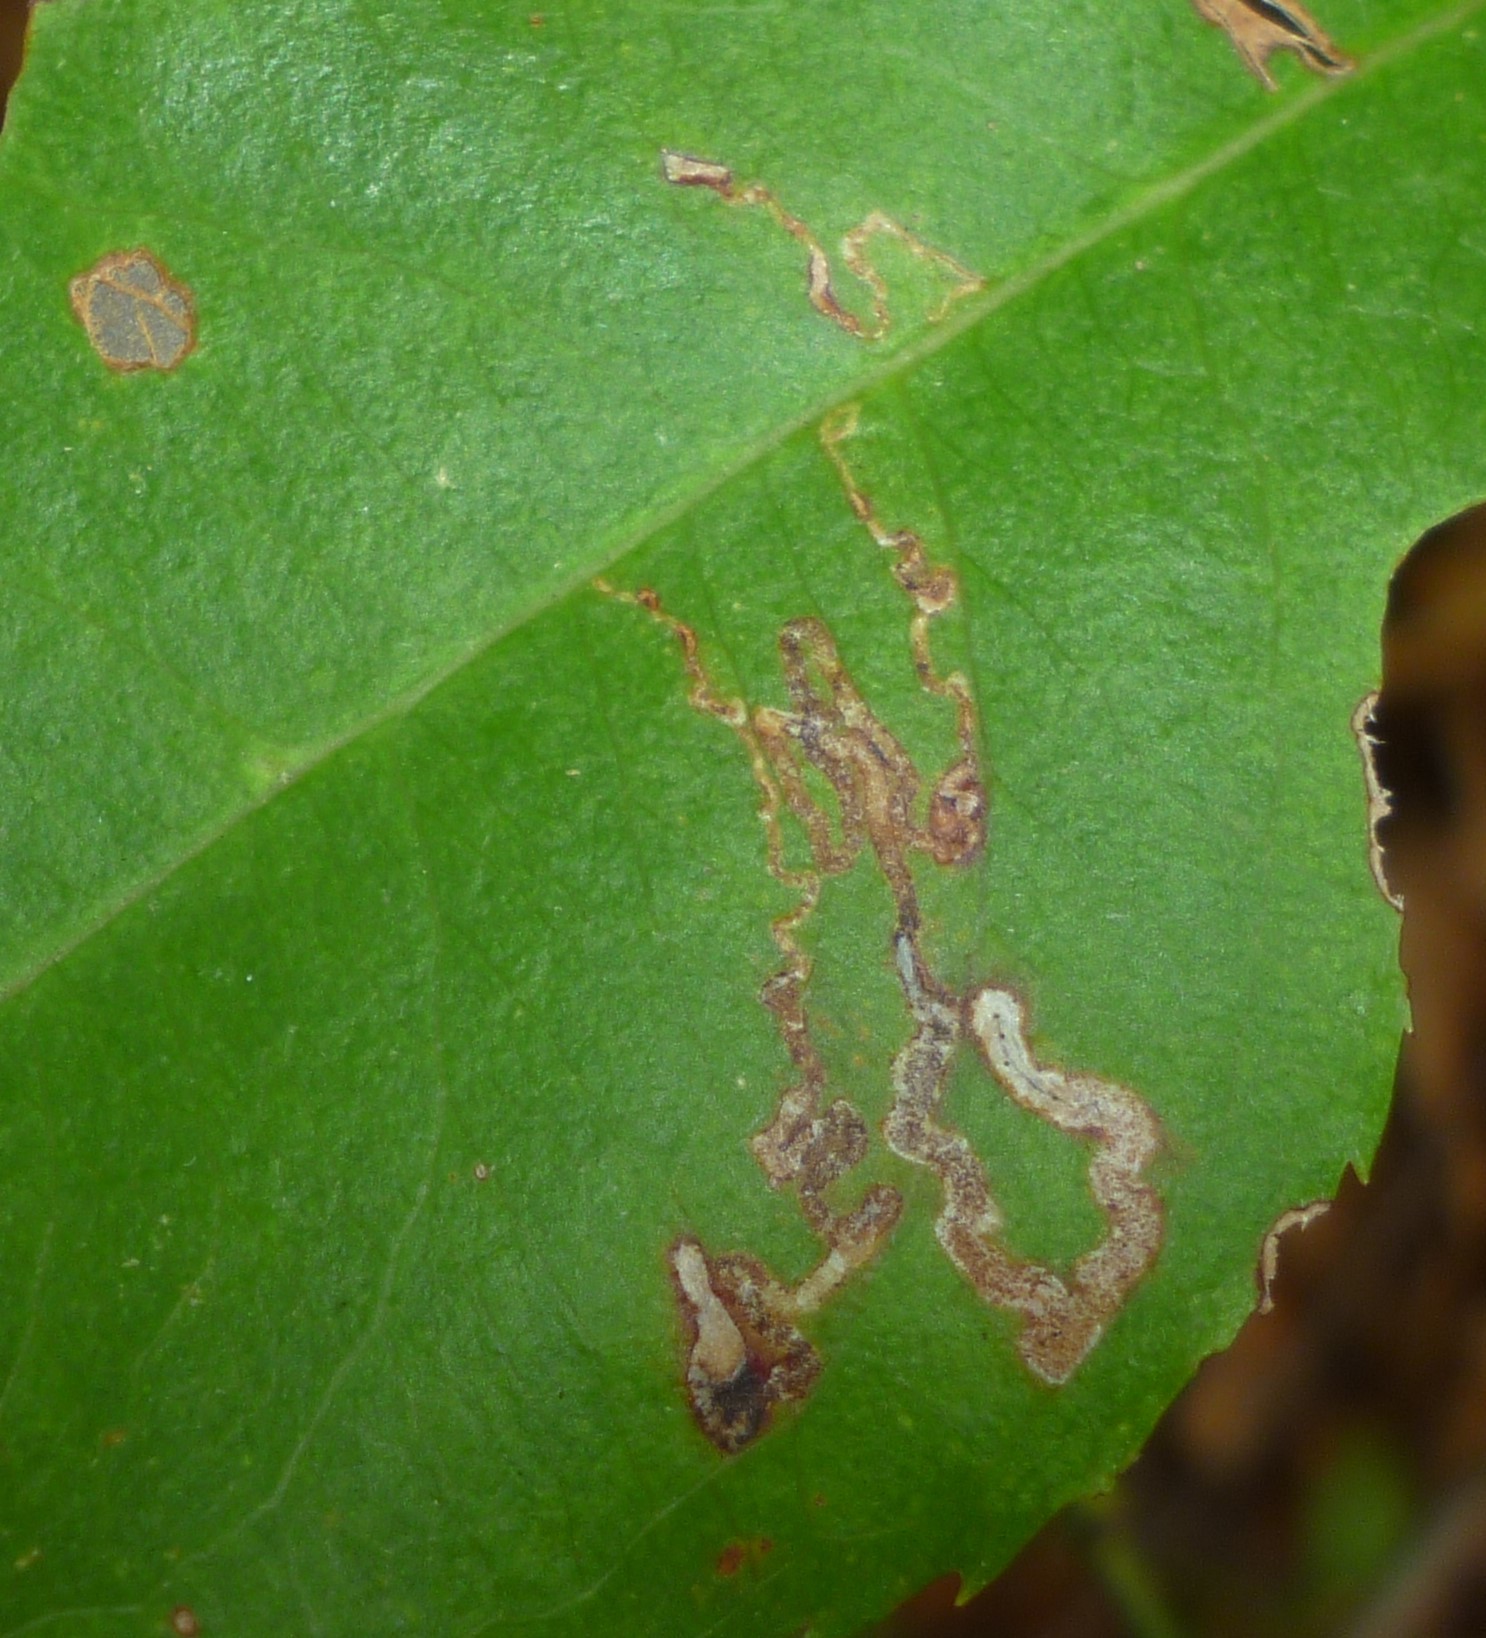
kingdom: Animalia
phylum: Arthropoda
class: Insecta
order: Lepidoptera
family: Nepticulidae
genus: Stigmella
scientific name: Stigmella prunifoliella
